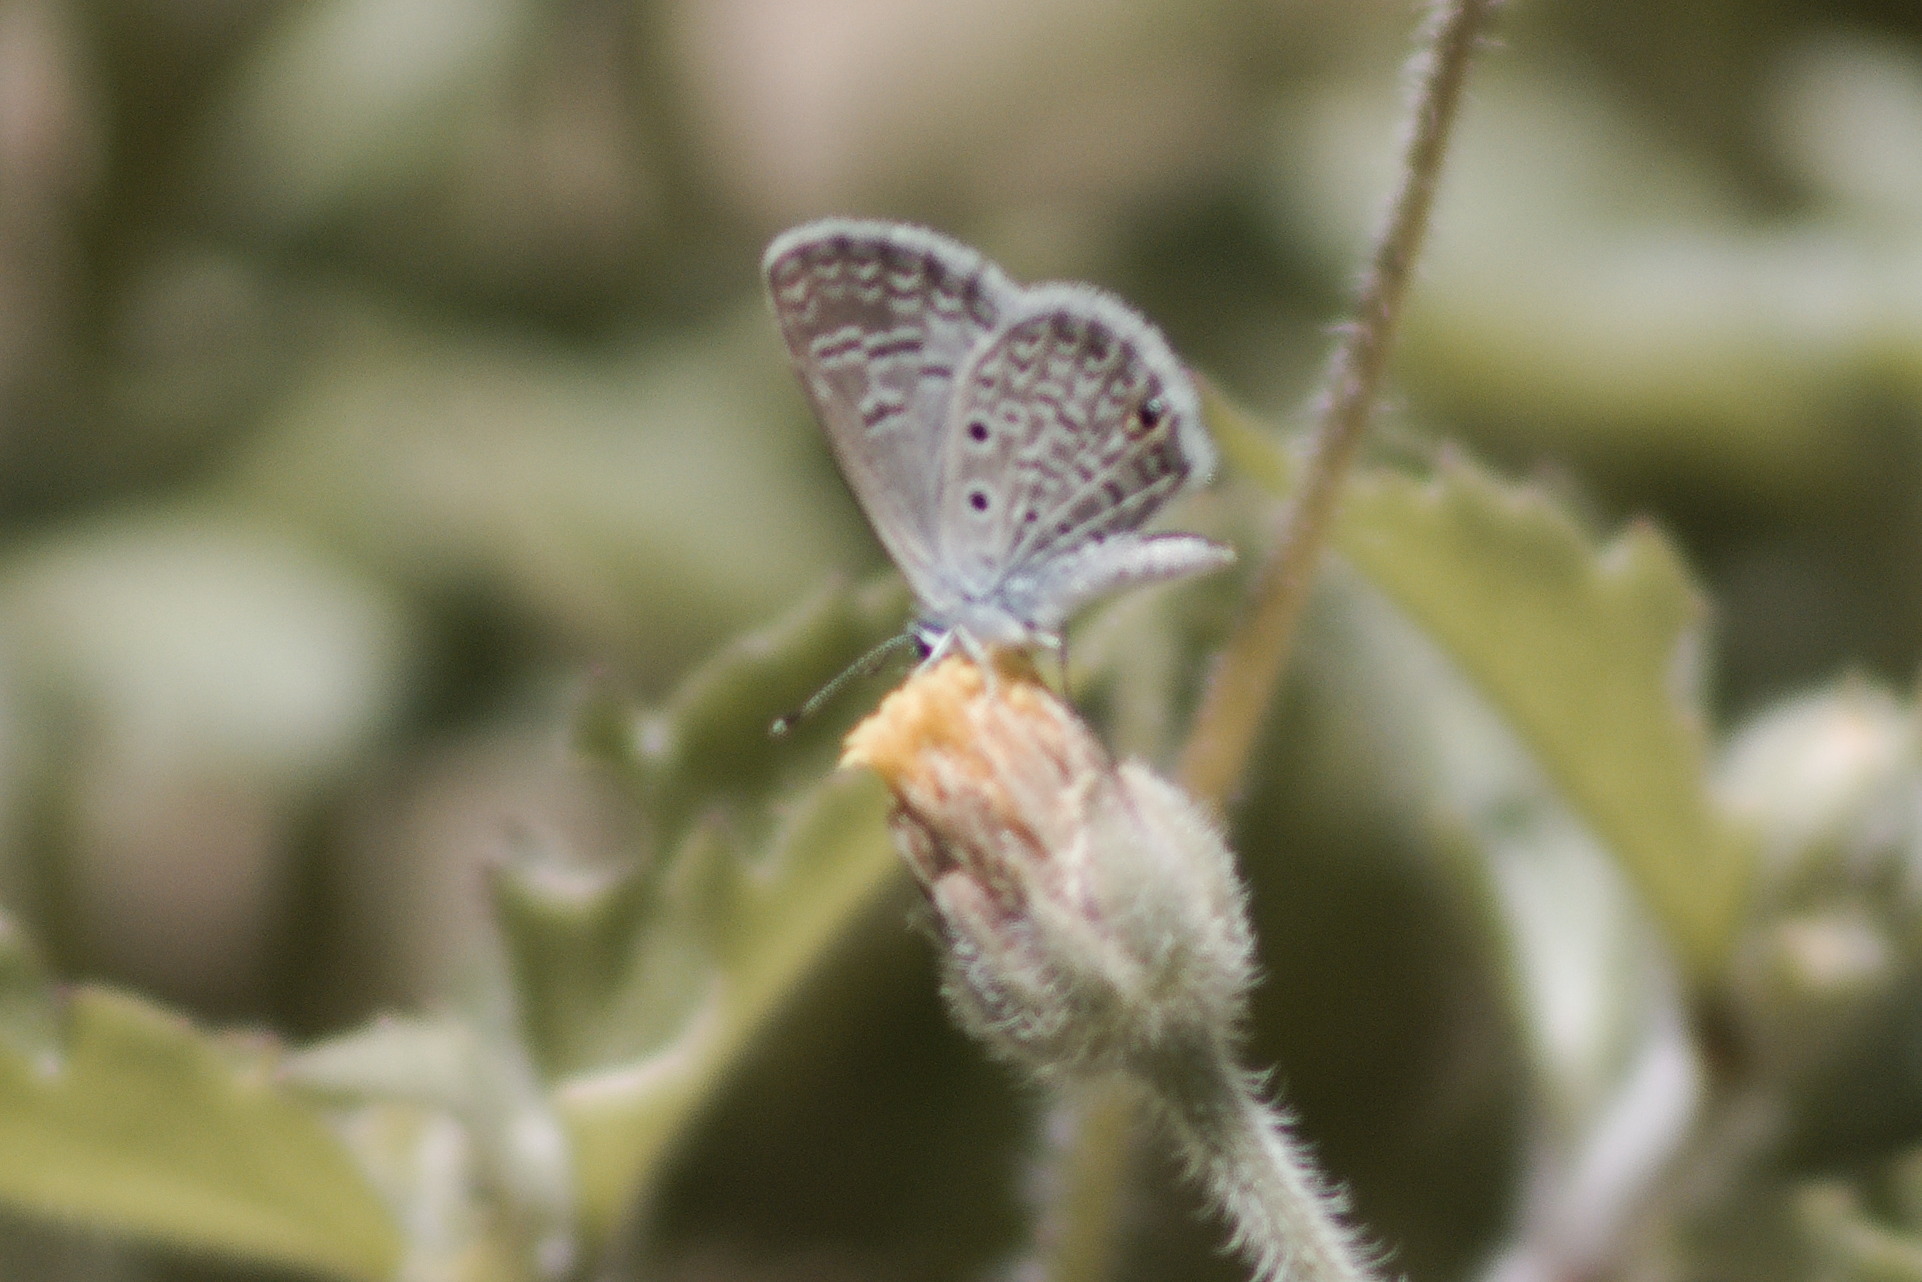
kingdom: Animalia
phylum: Arthropoda
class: Insecta
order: Lepidoptera
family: Lycaenidae
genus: Hemiargus
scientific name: Hemiargus hanno
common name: Common blue
